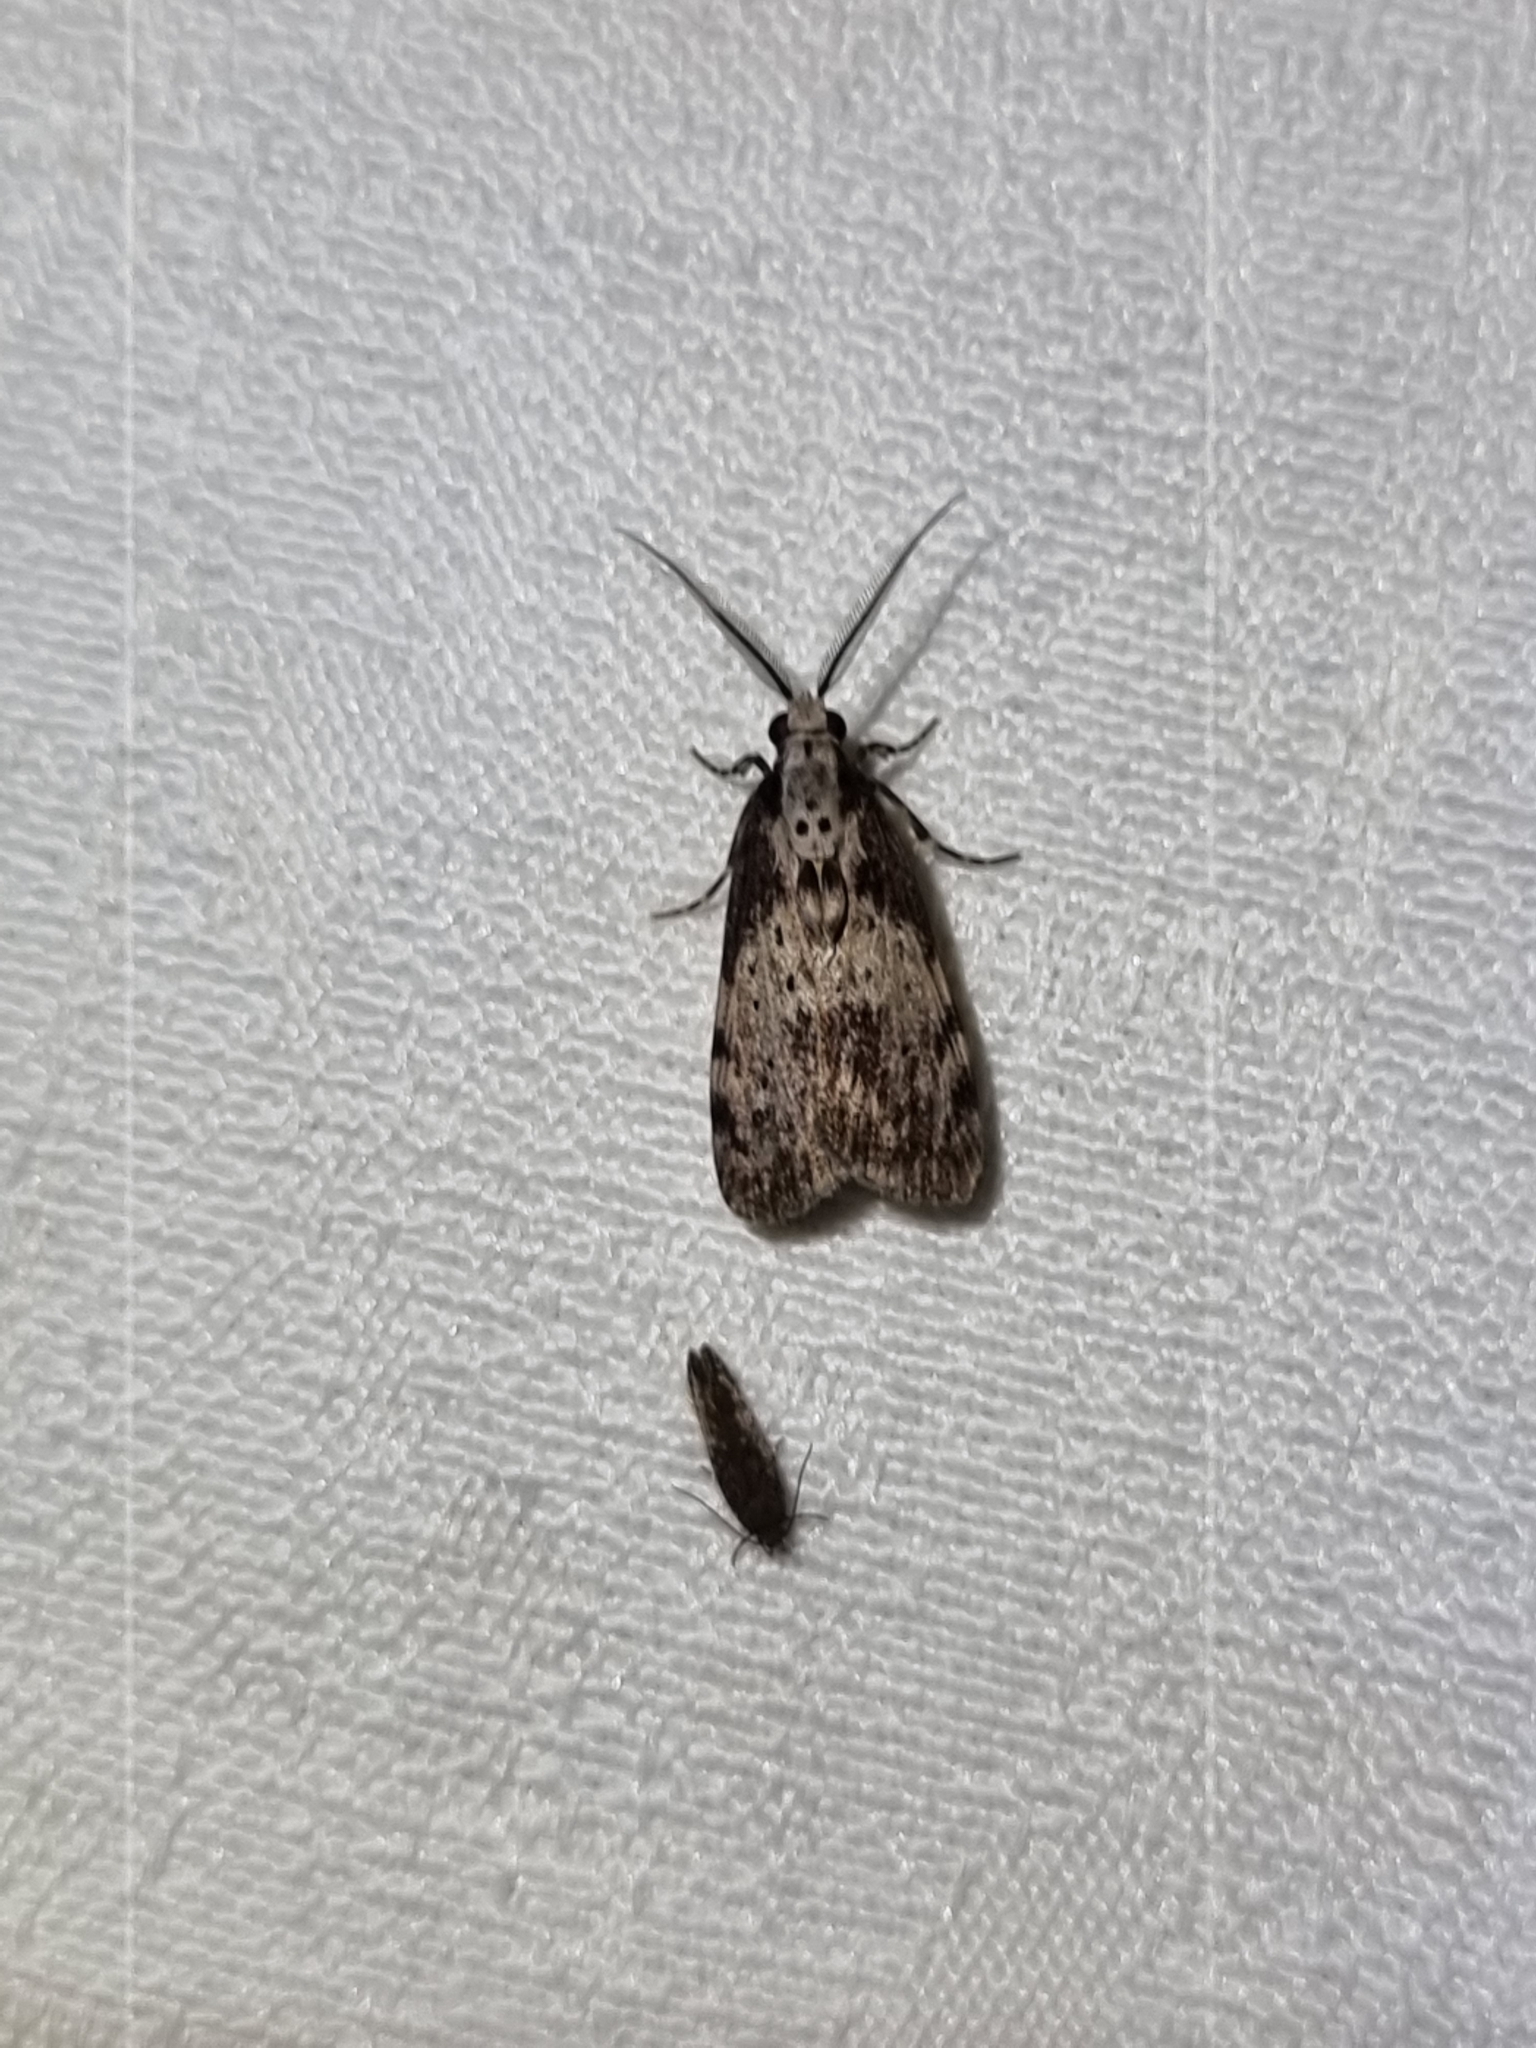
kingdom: Animalia
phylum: Arthropoda
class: Insecta
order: Lepidoptera
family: Erebidae
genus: Digama
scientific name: Digama Sommeria marmorea
